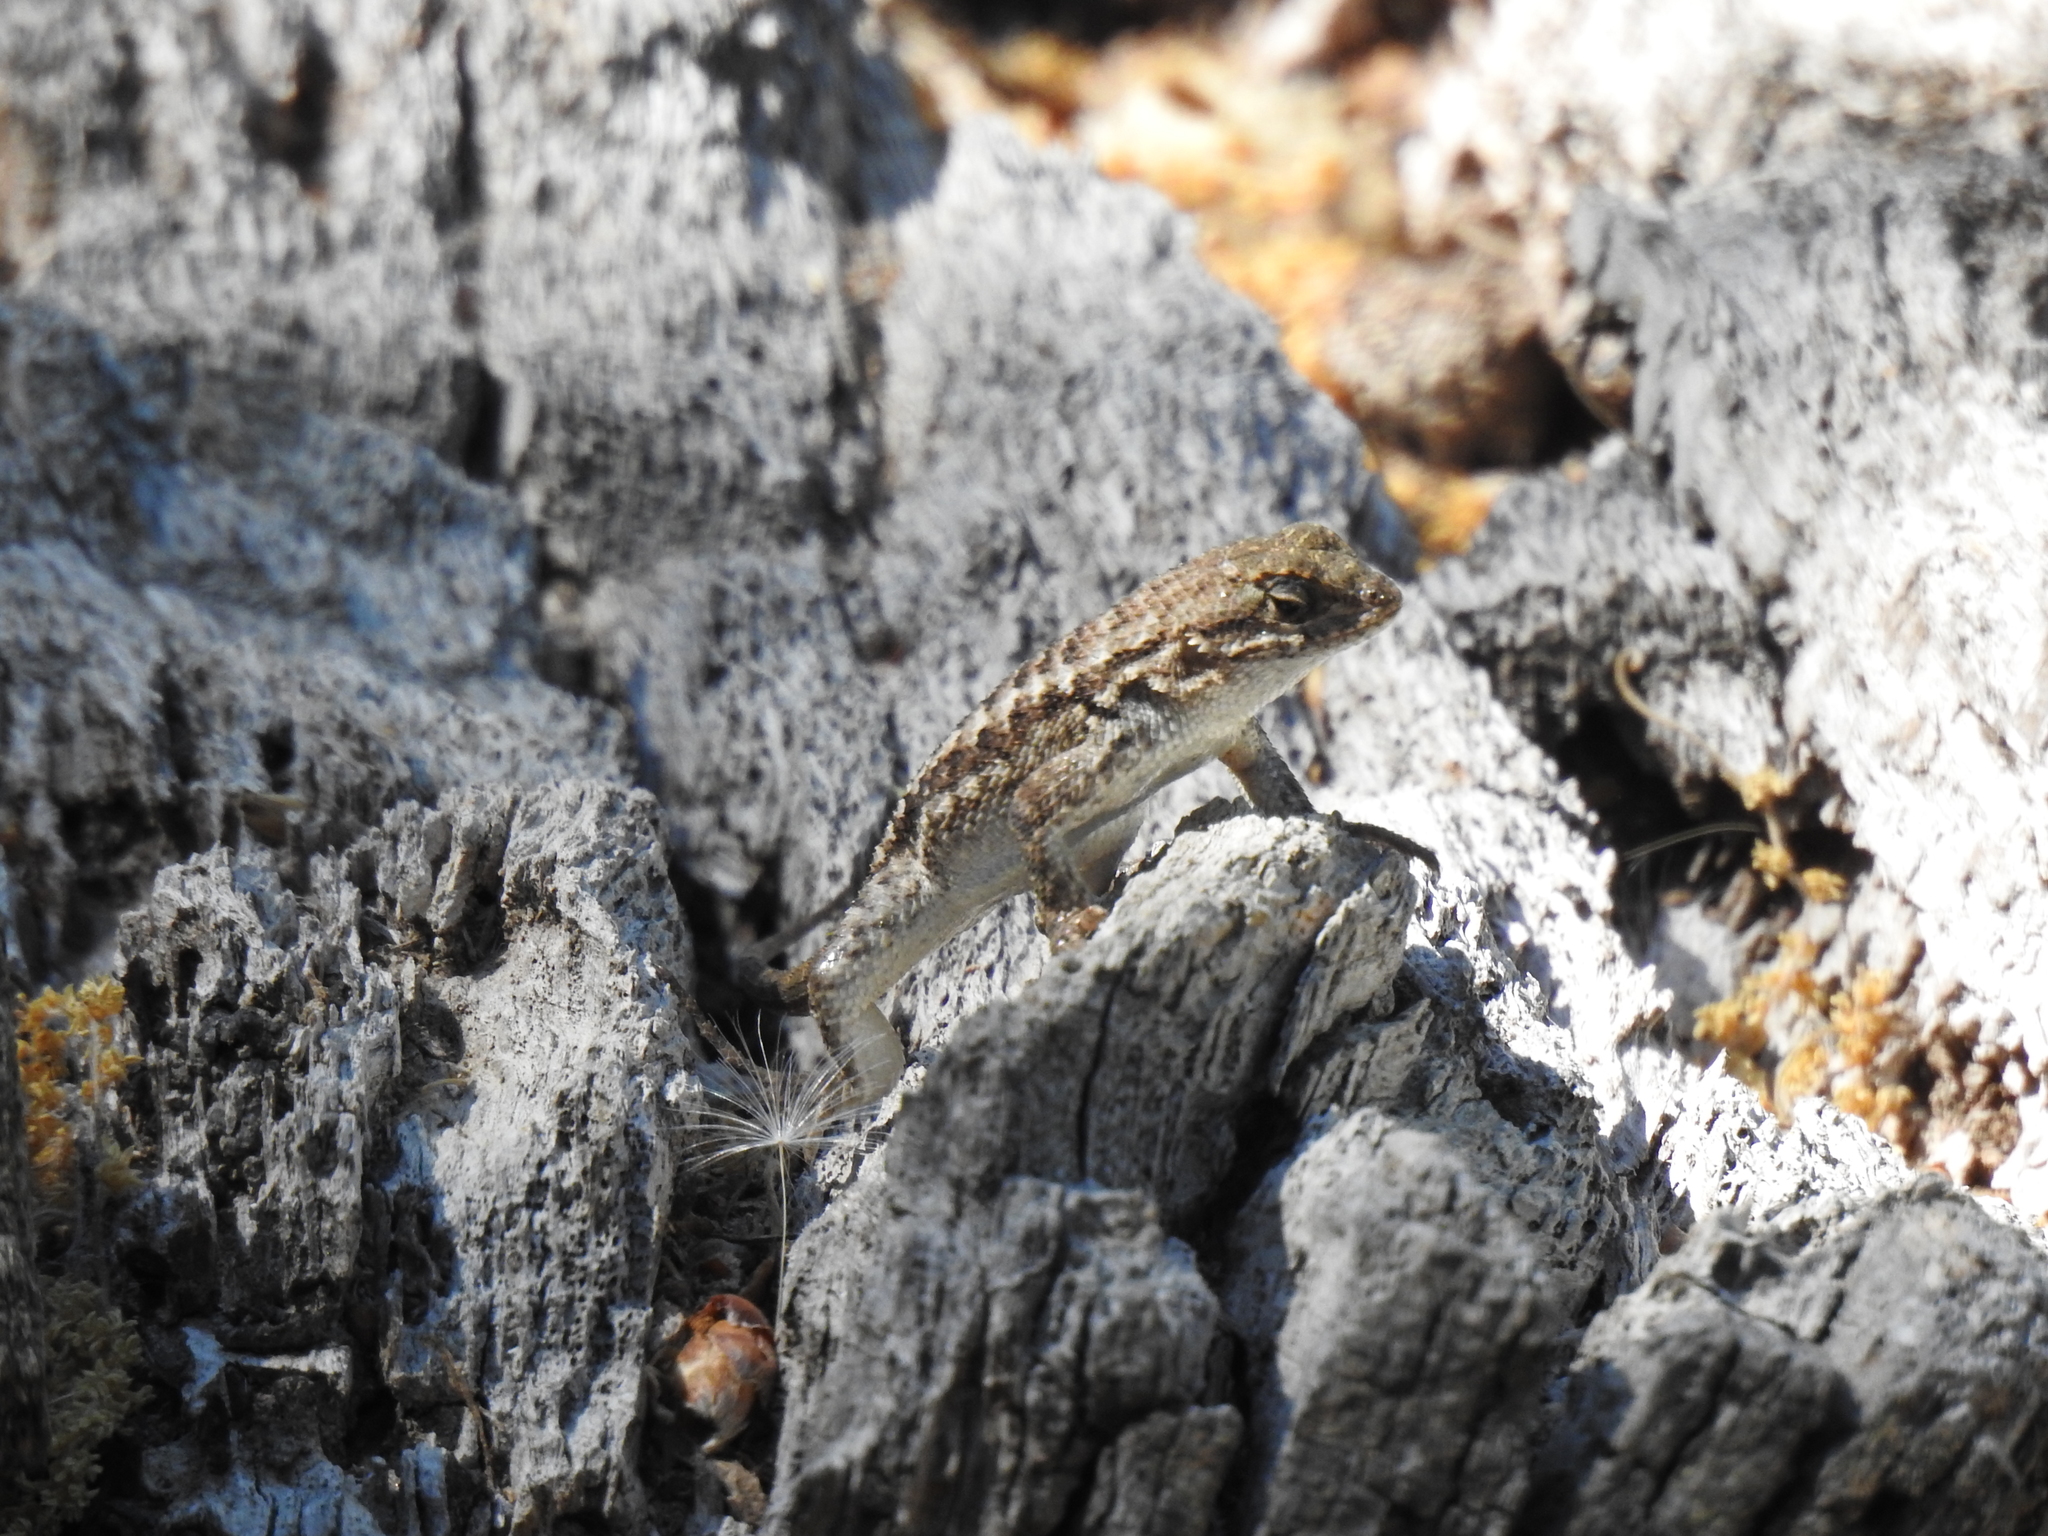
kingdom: Animalia
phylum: Chordata
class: Squamata
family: Phrynosomatidae
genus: Sceloporus
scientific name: Sceloporus occidentalis
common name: Western fence lizard
